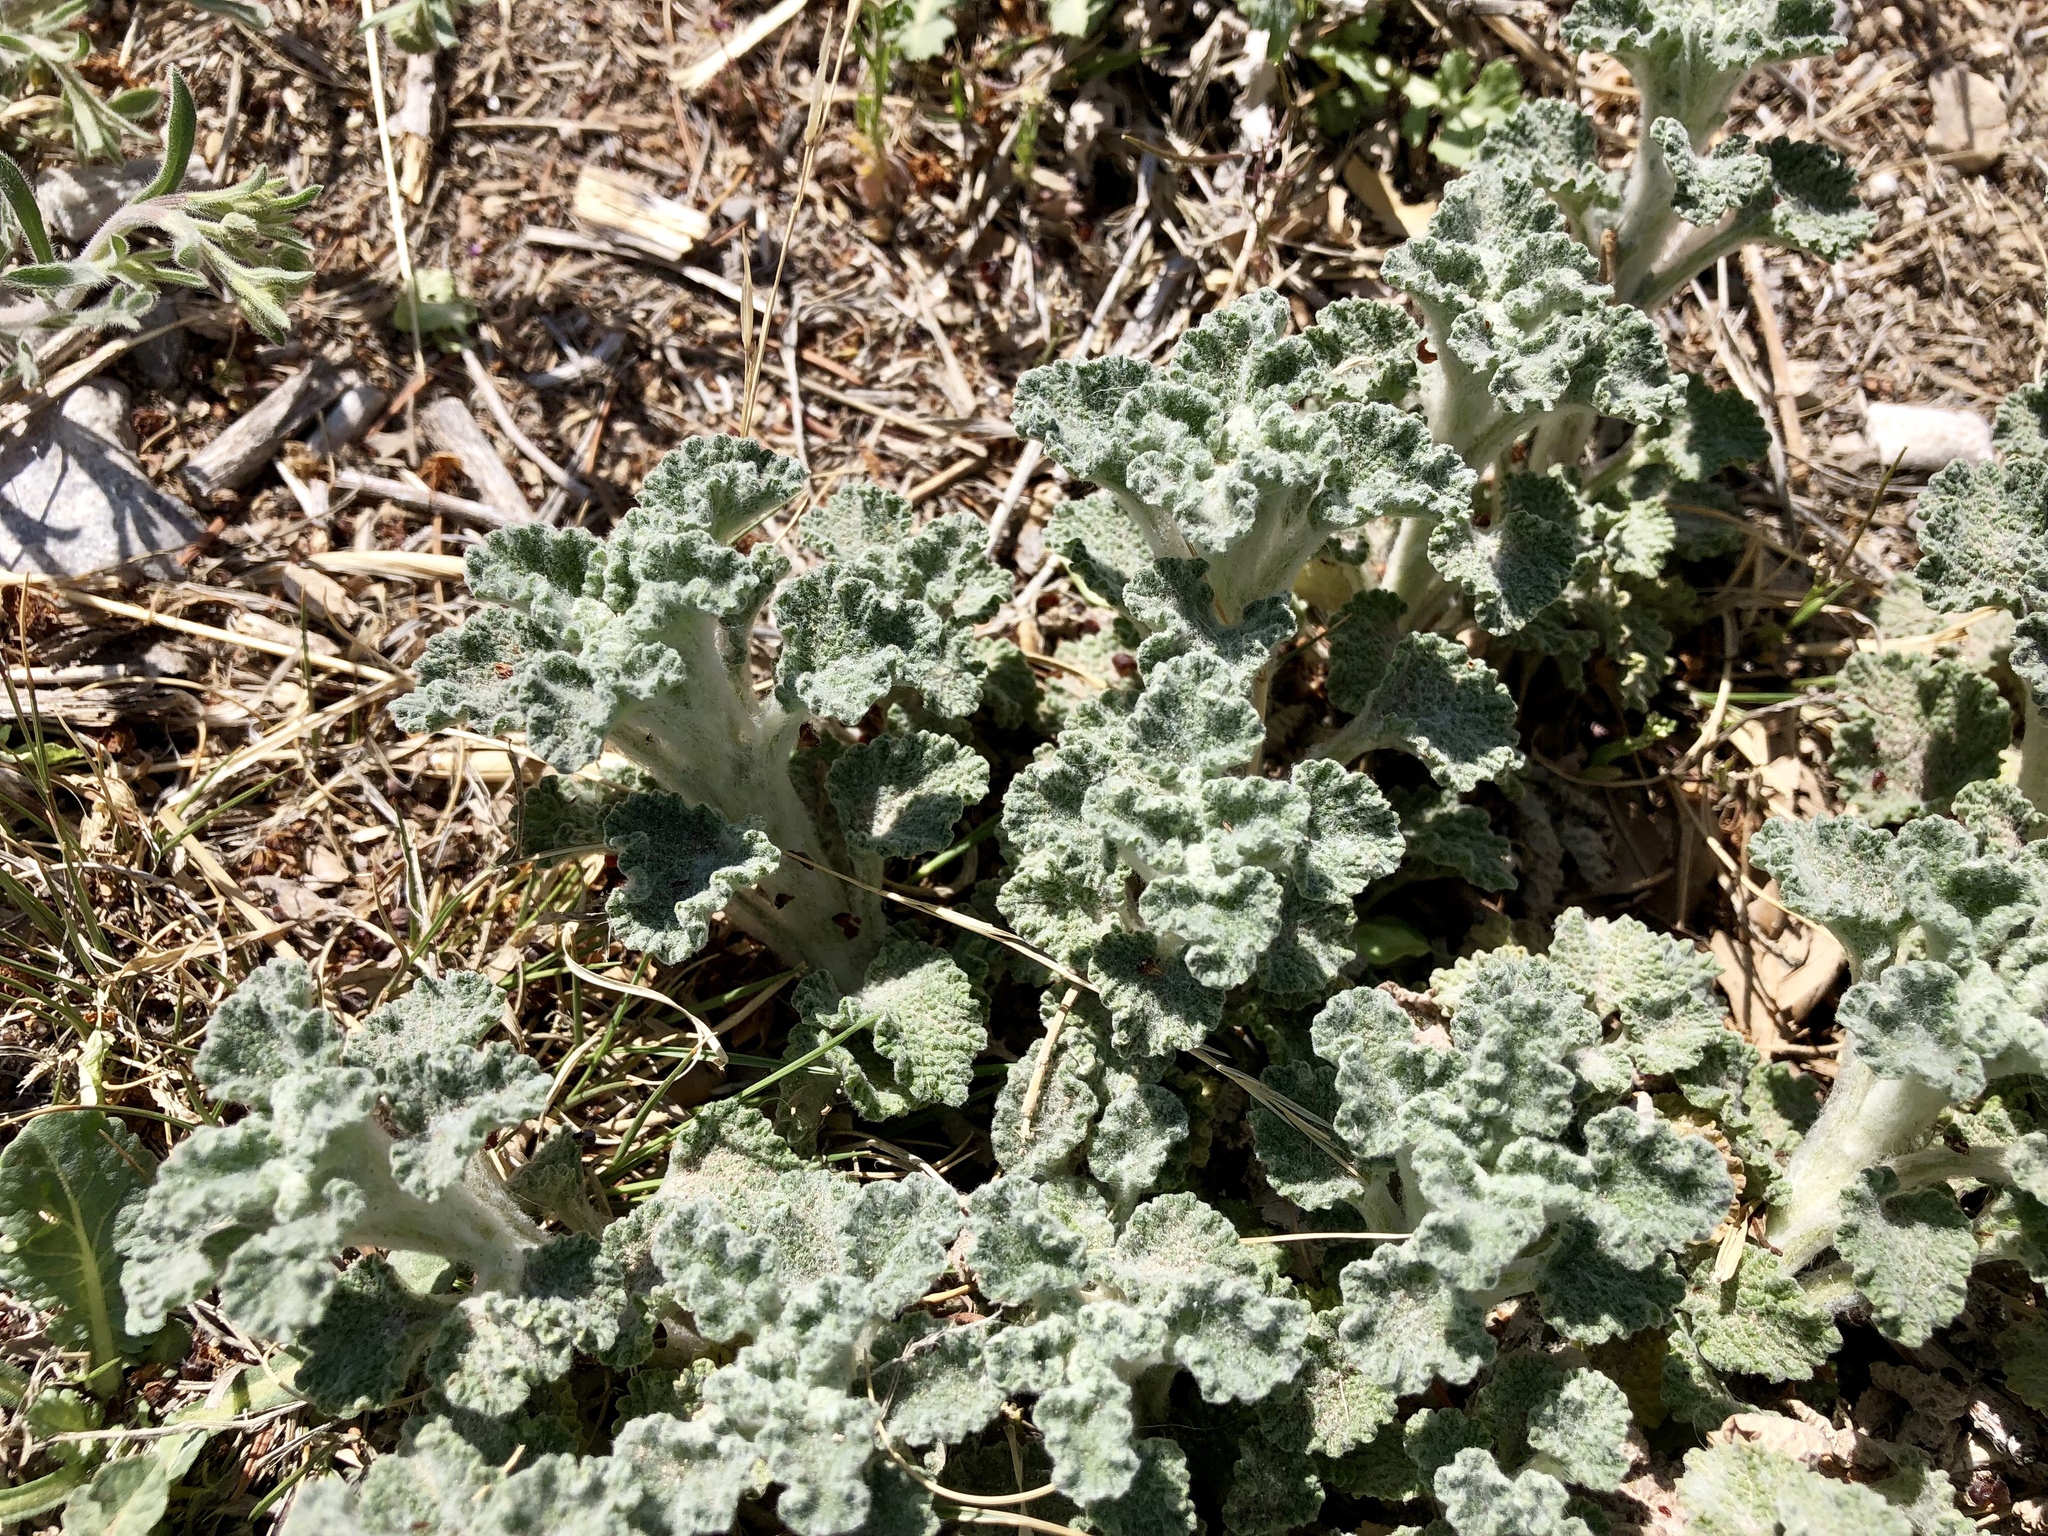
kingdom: Plantae
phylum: Tracheophyta
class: Magnoliopsida
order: Lamiales
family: Lamiaceae
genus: Marrubium
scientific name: Marrubium vulgare
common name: Horehound
